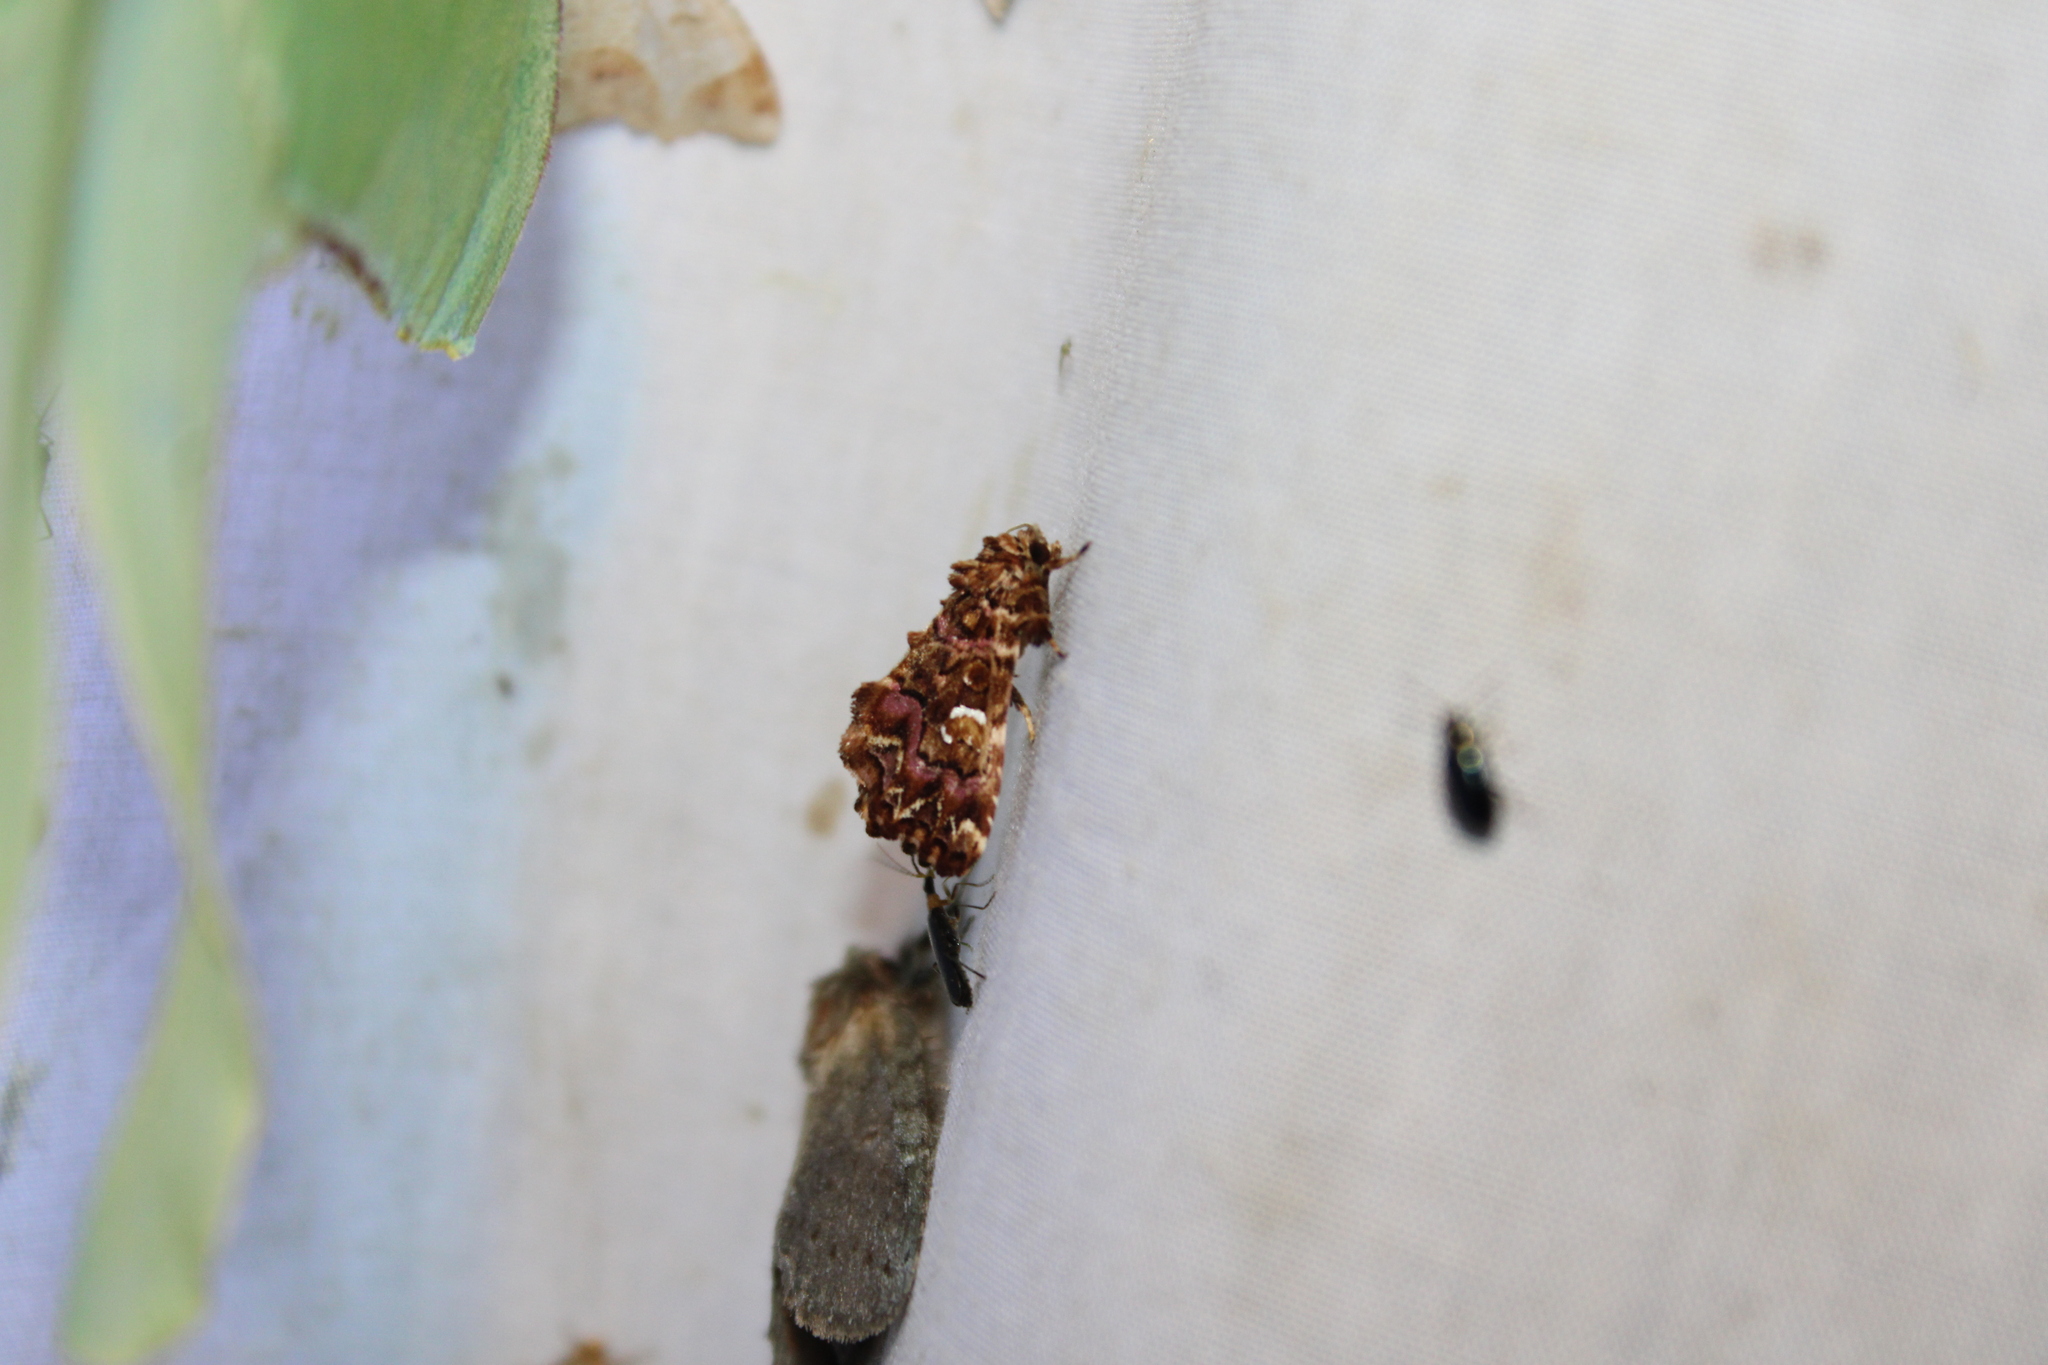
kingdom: Animalia
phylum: Arthropoda
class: Insecta
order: Lepidoptera
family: Noctuidae
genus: Callopistria
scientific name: Callopistria mollissima
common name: Pink-shaded fern moth
